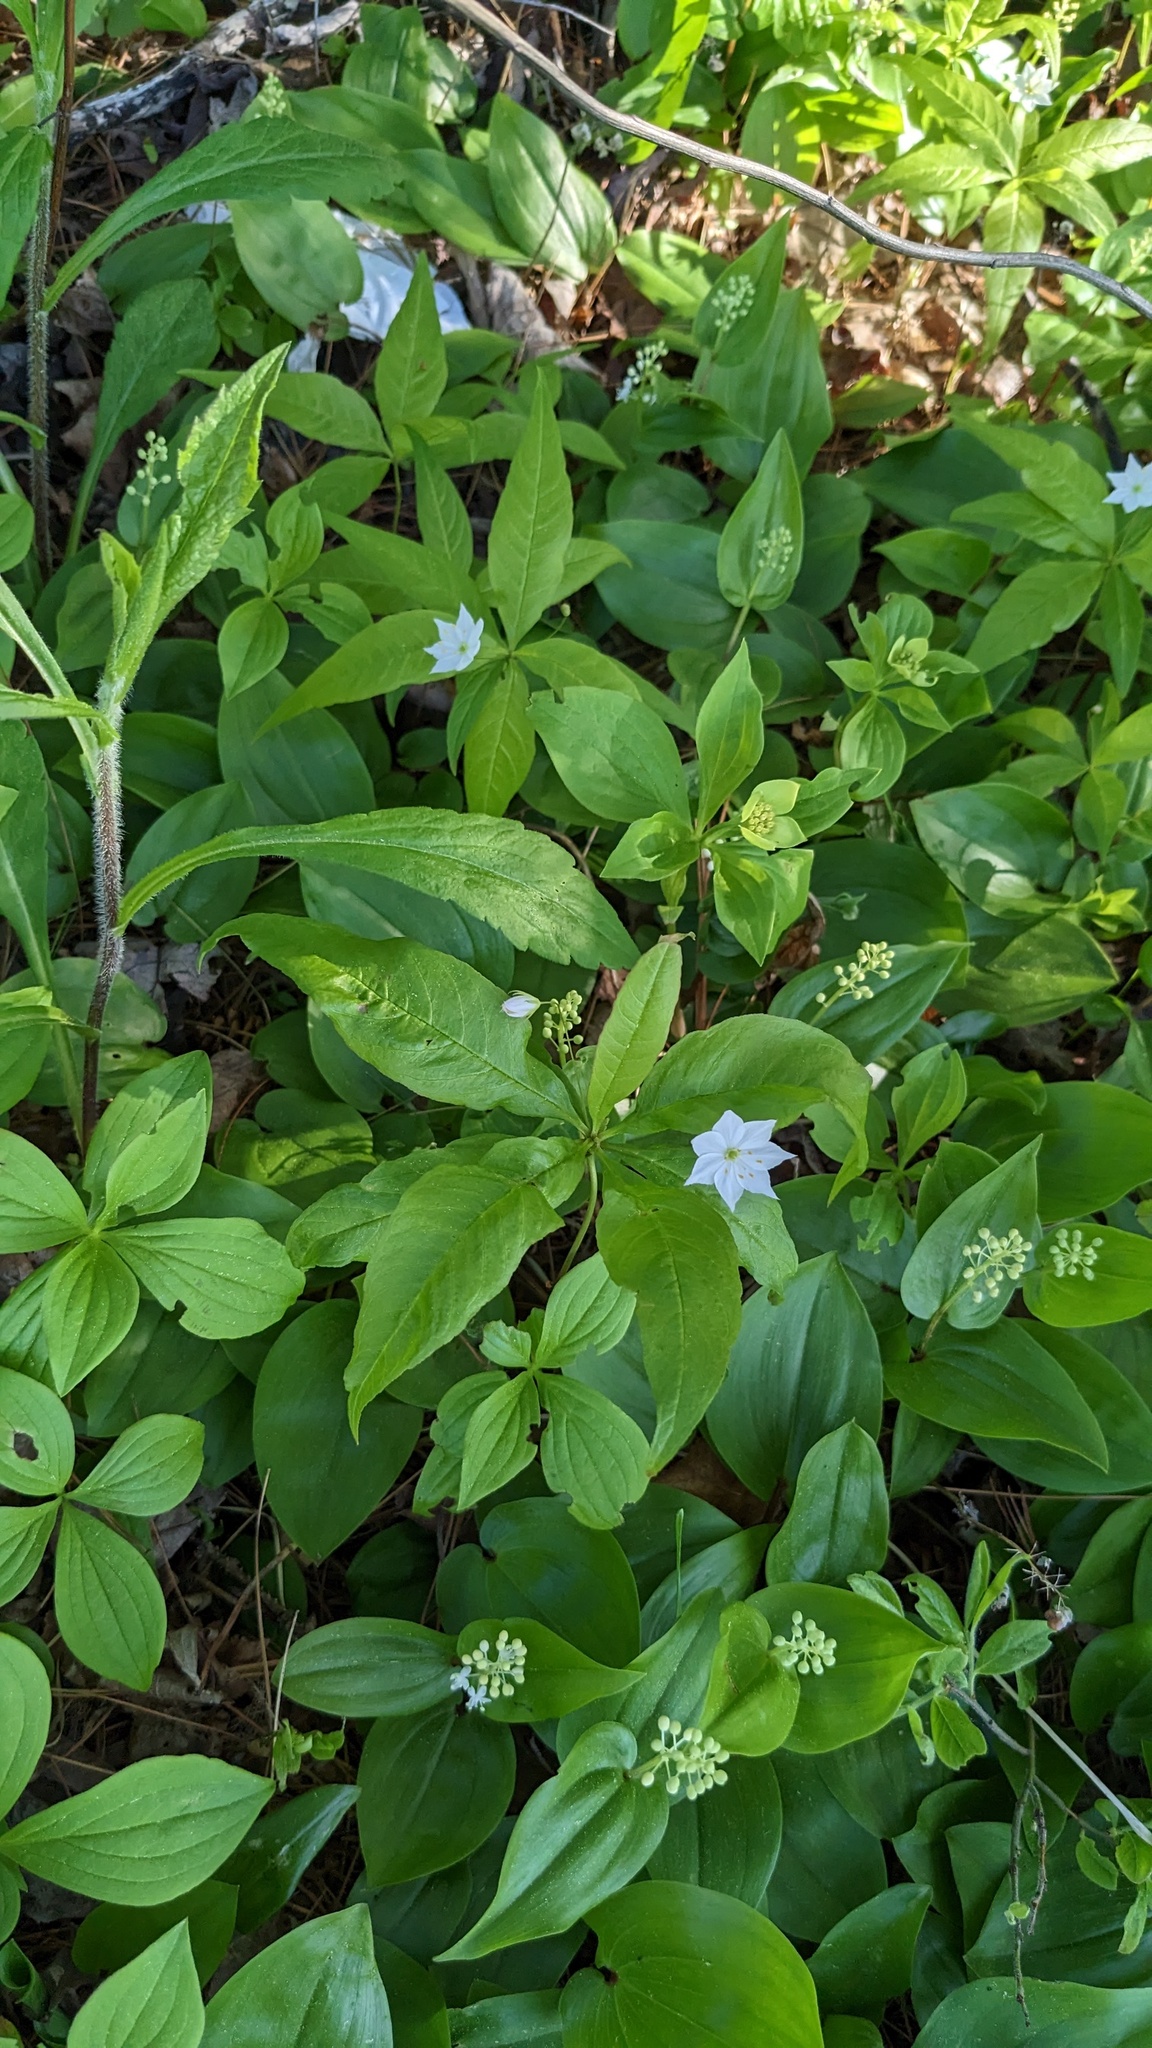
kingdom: Plantae
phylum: Tracheophyta
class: Magnoliopsida
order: Ericales
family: Primulaceae
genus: Lysimachia
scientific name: Lysimachia borealis
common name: American starflower
